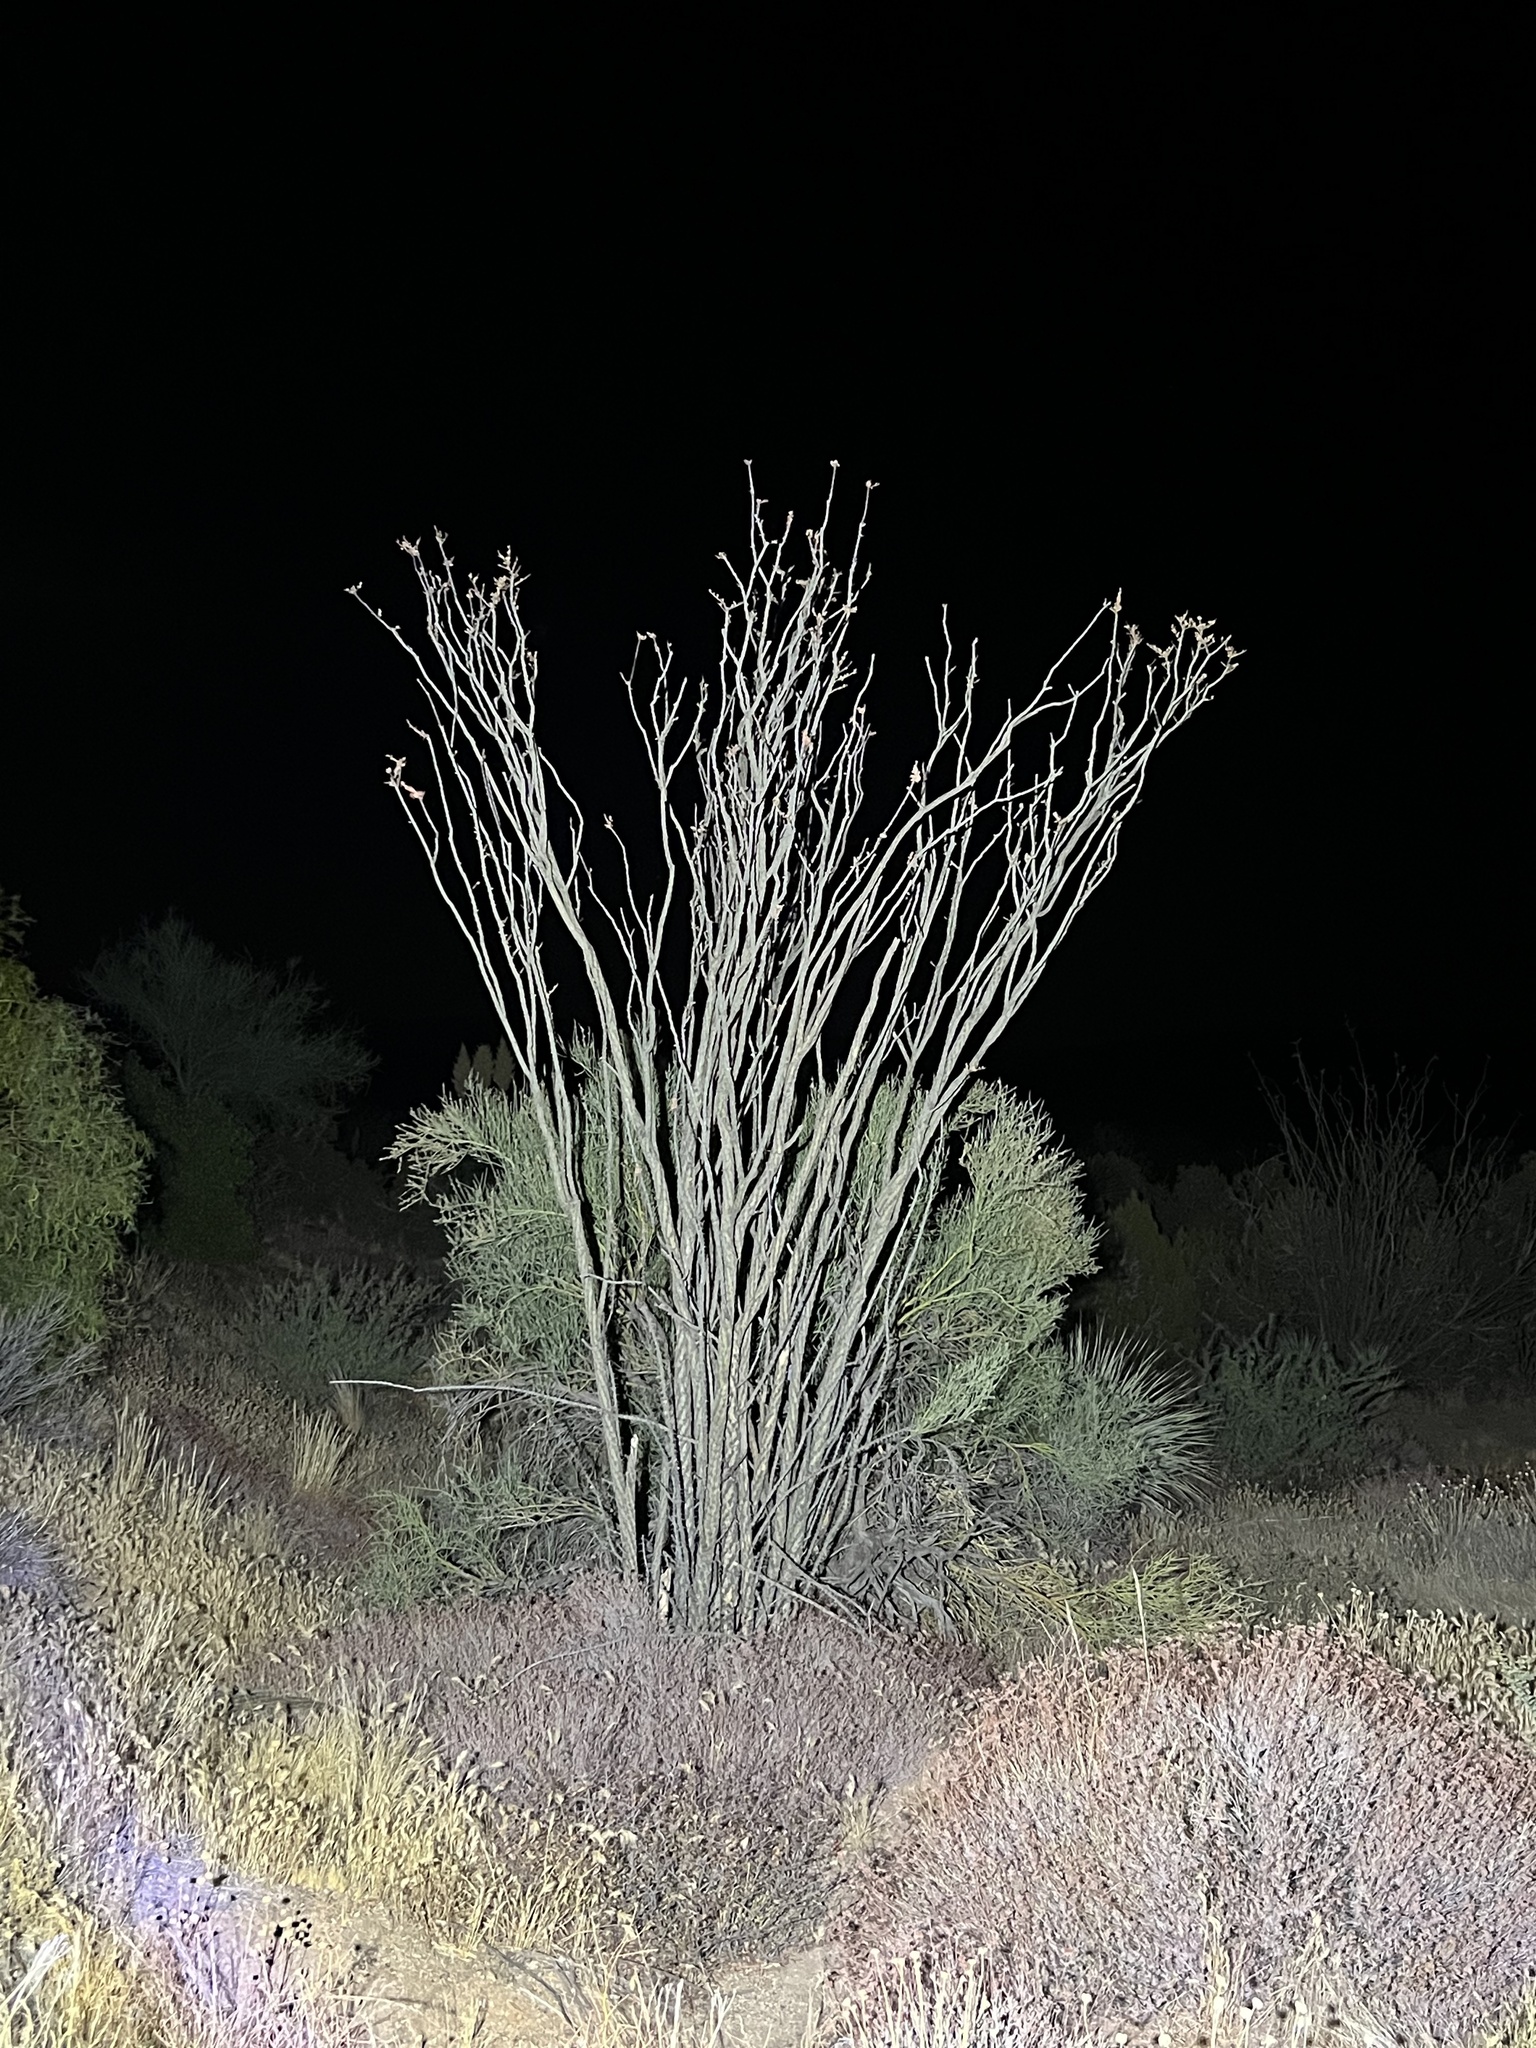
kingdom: Plantae
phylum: Tracheophyta
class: Magnoliopsida
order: Ericales
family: Fouquieriaceae
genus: Fouquieria
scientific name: Fouquieria splendens
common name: Vine-cactus
